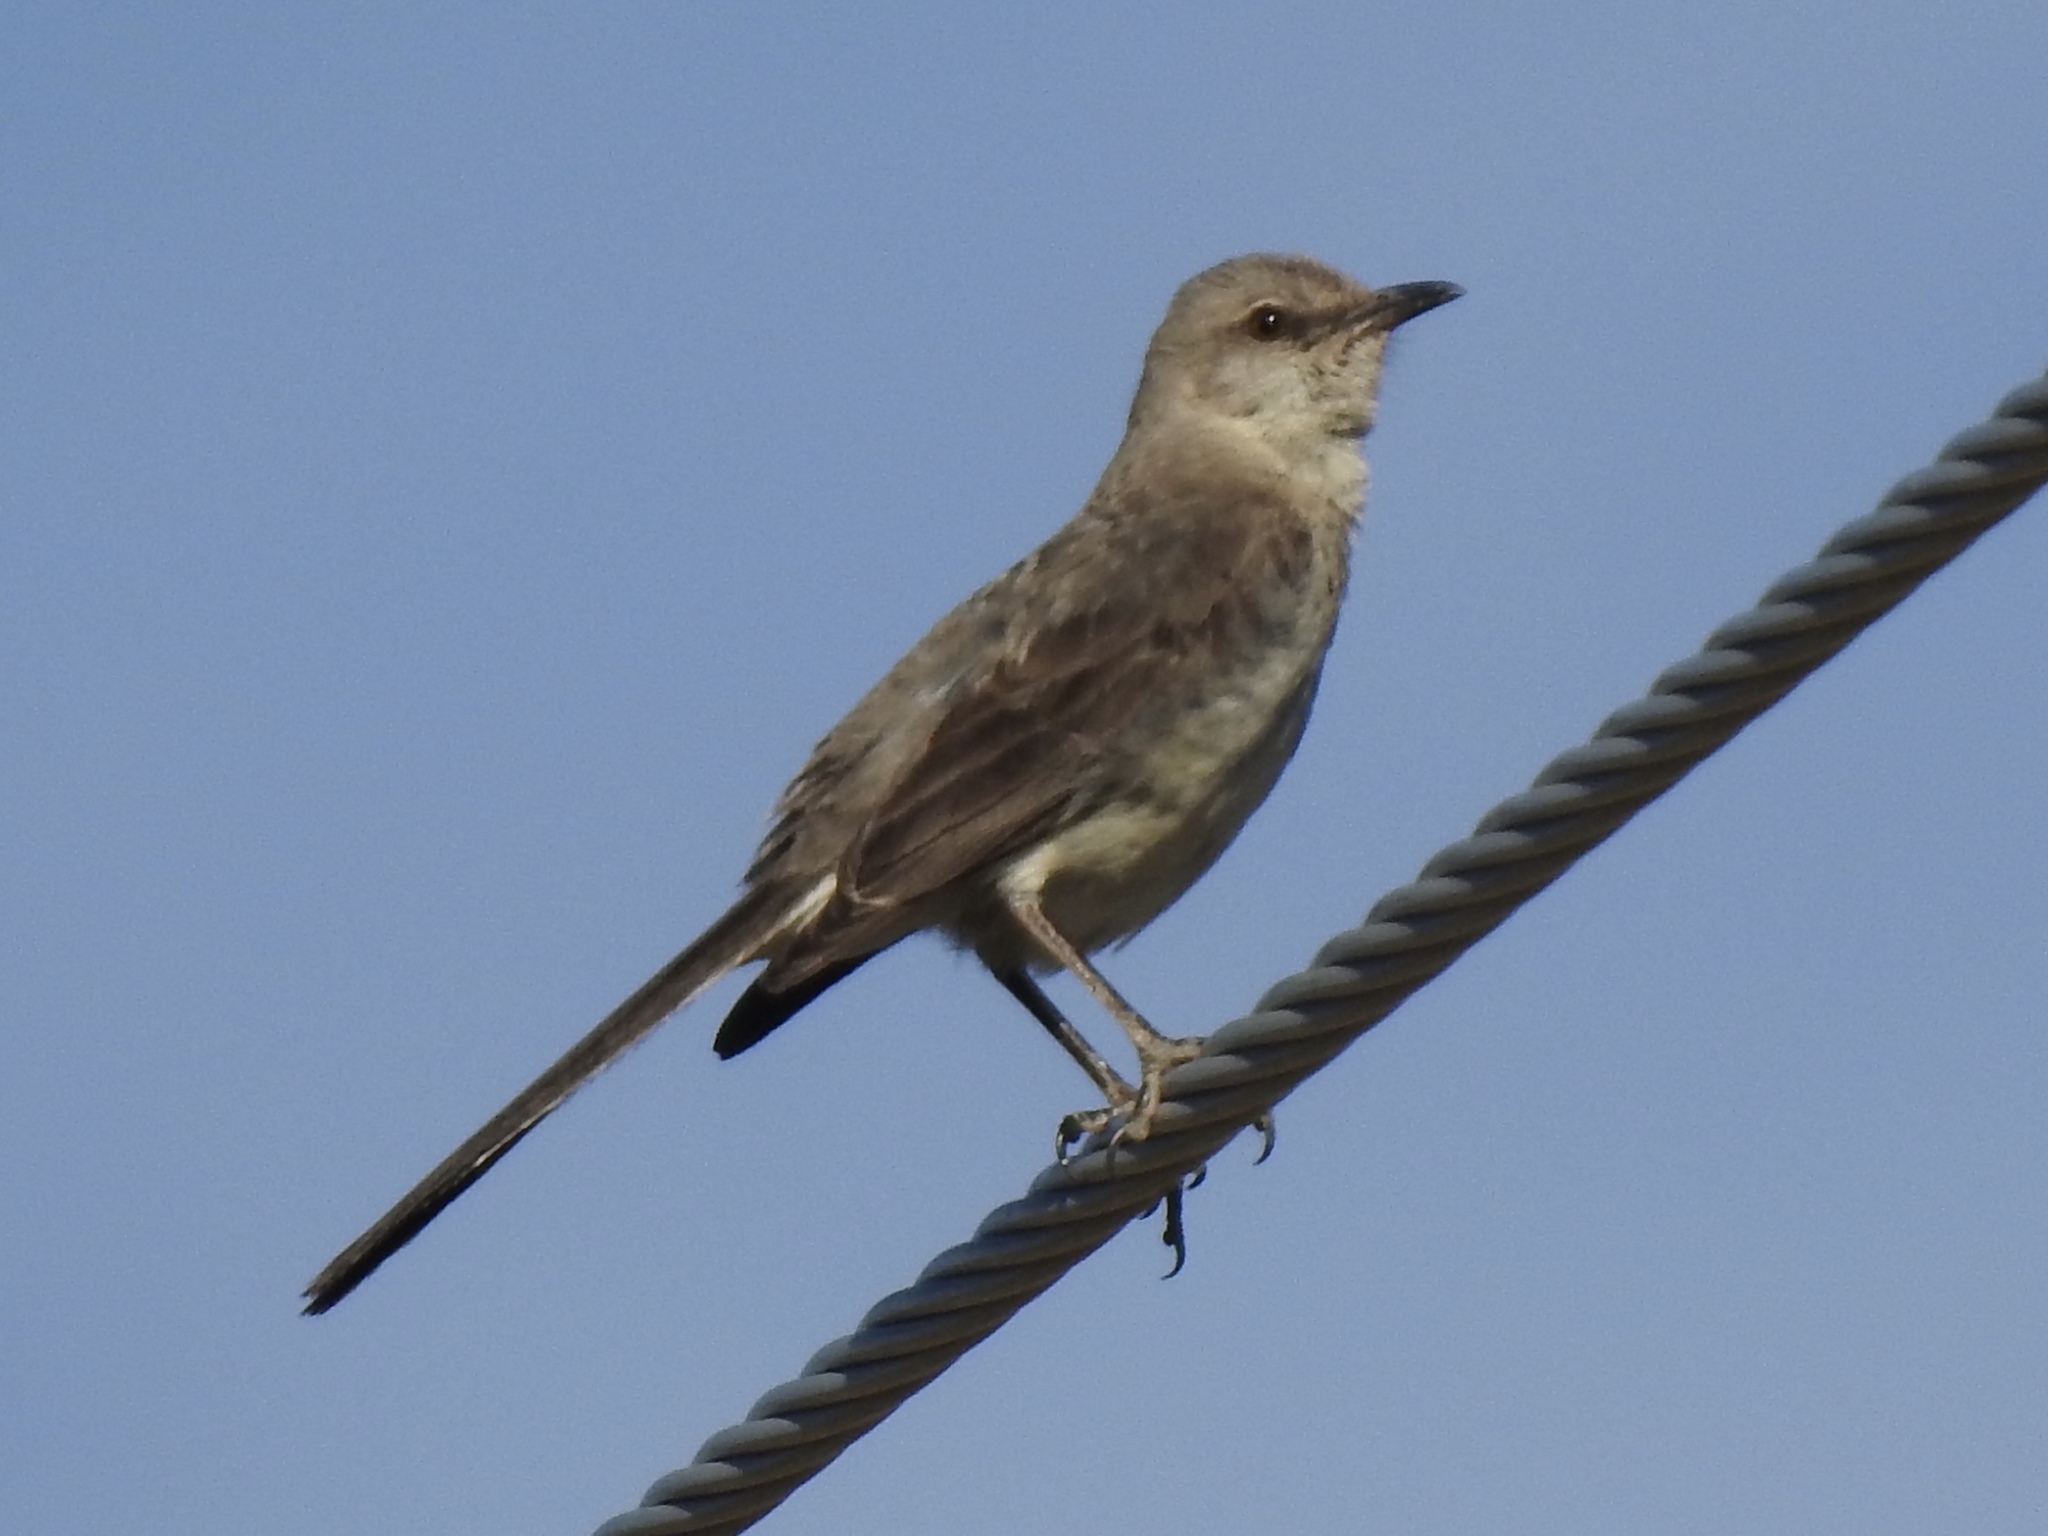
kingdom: Animalia
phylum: Chordata
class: Aves
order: Passeriformes
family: Mimidae
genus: Mimus
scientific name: Mimus polyglottos
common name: Northern mockingbird
